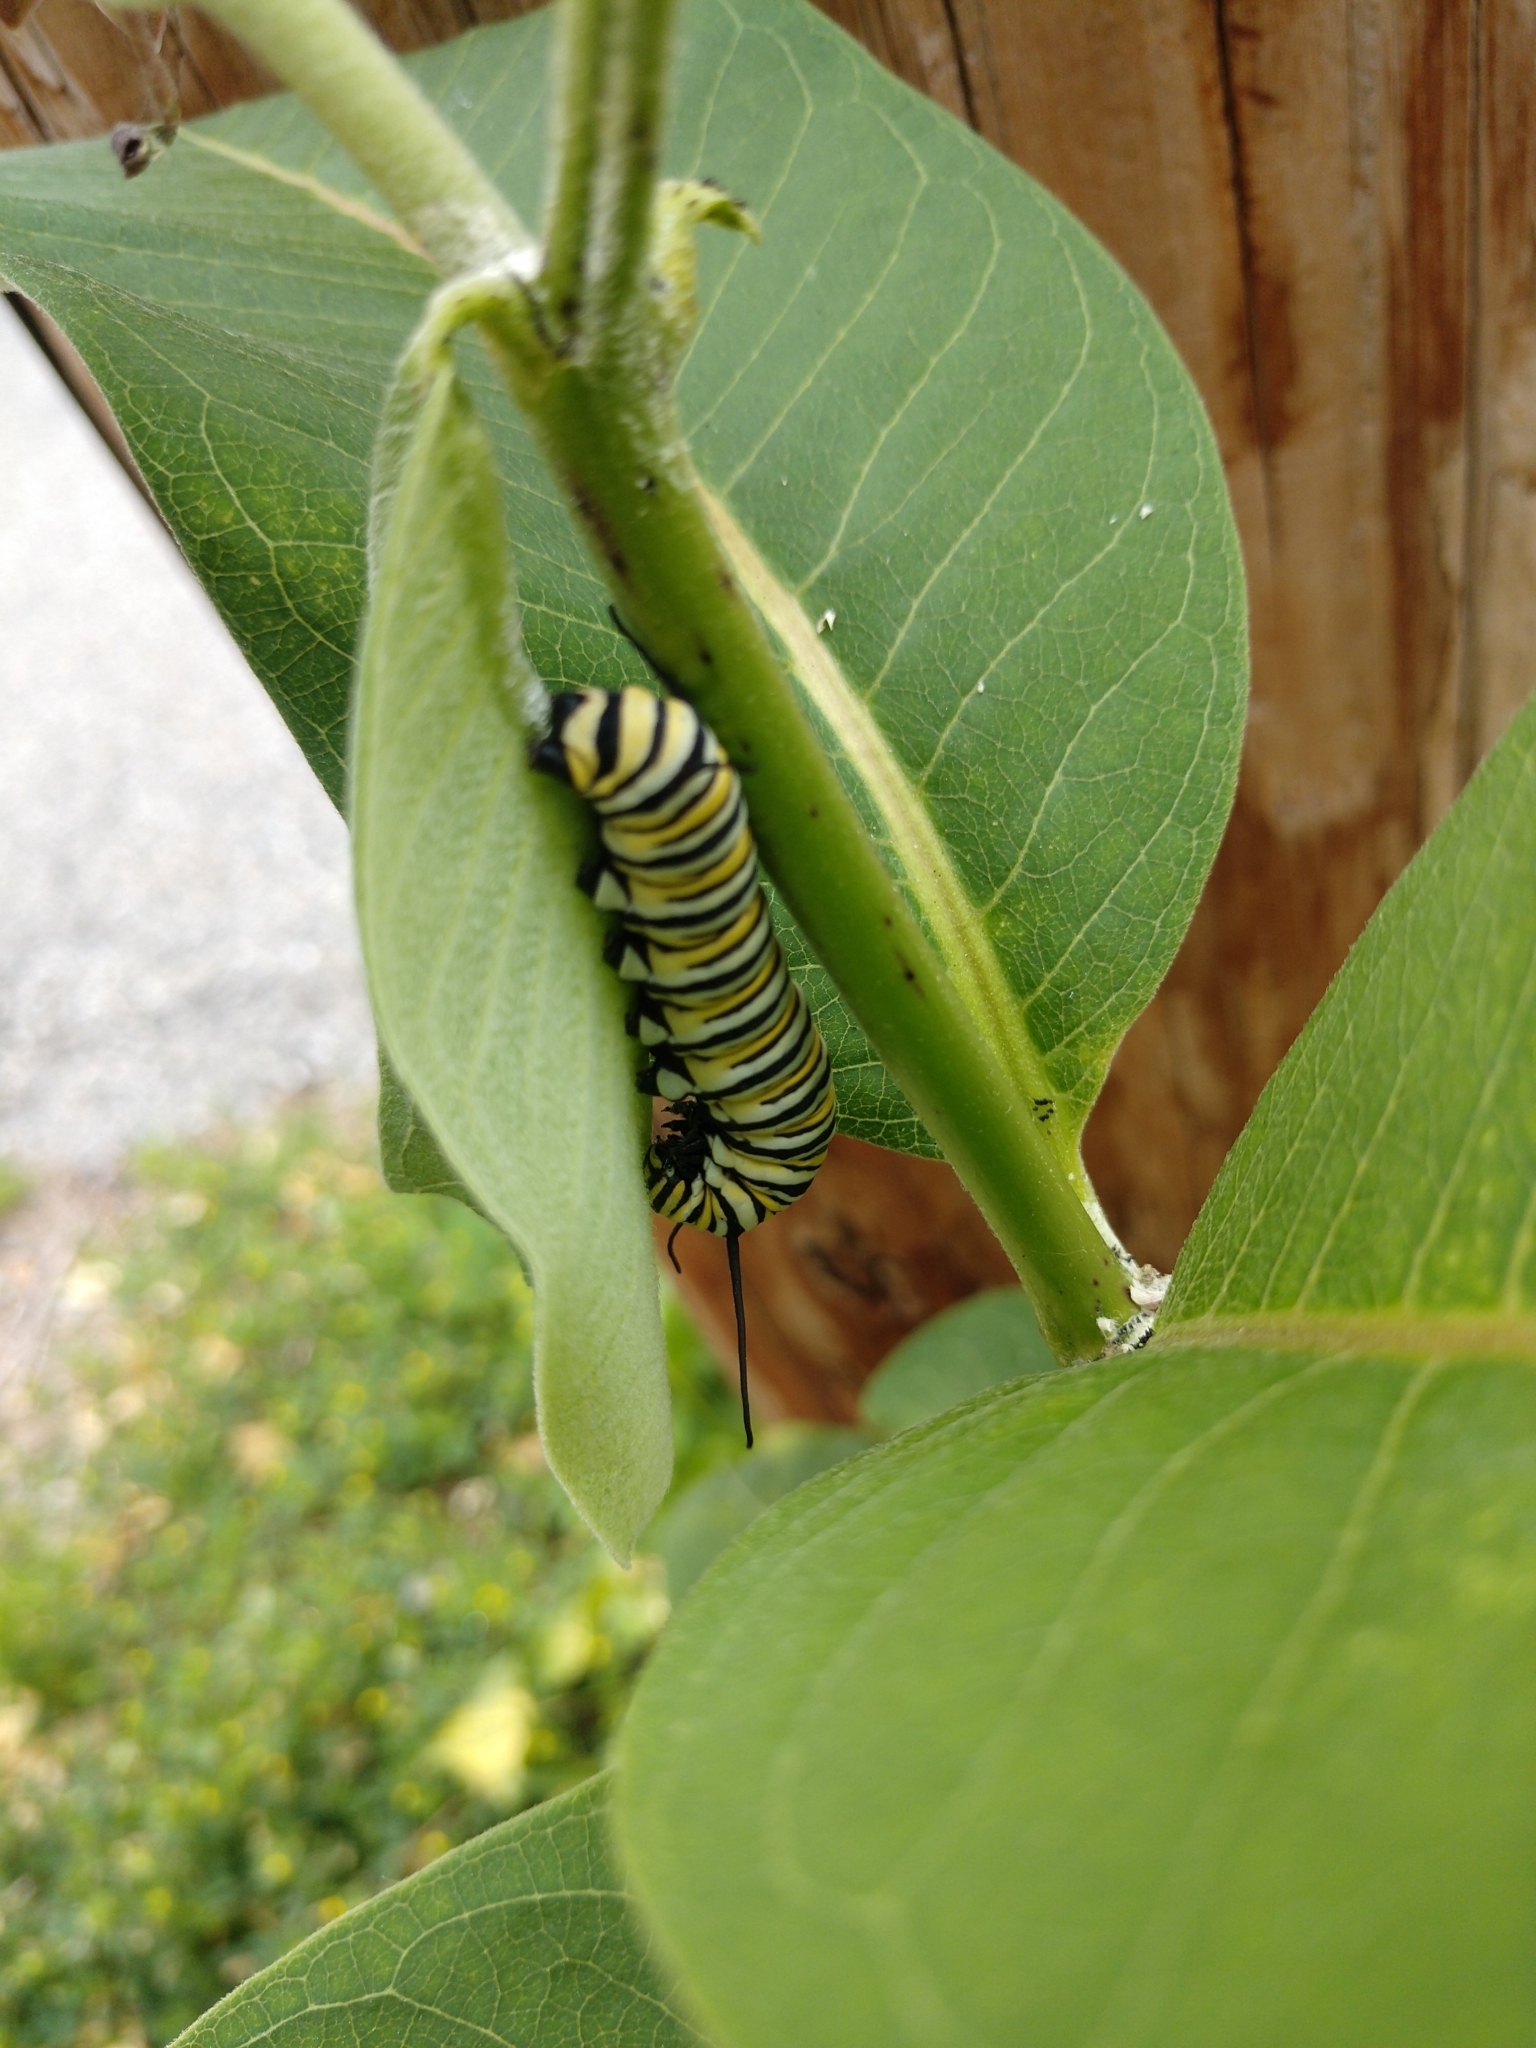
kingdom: Animalia
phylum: Arthropoda
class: Insecta
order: Lepidoptera
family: Nymphalidae
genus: Danaus
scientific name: Danaus plexippus
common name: Monarch
